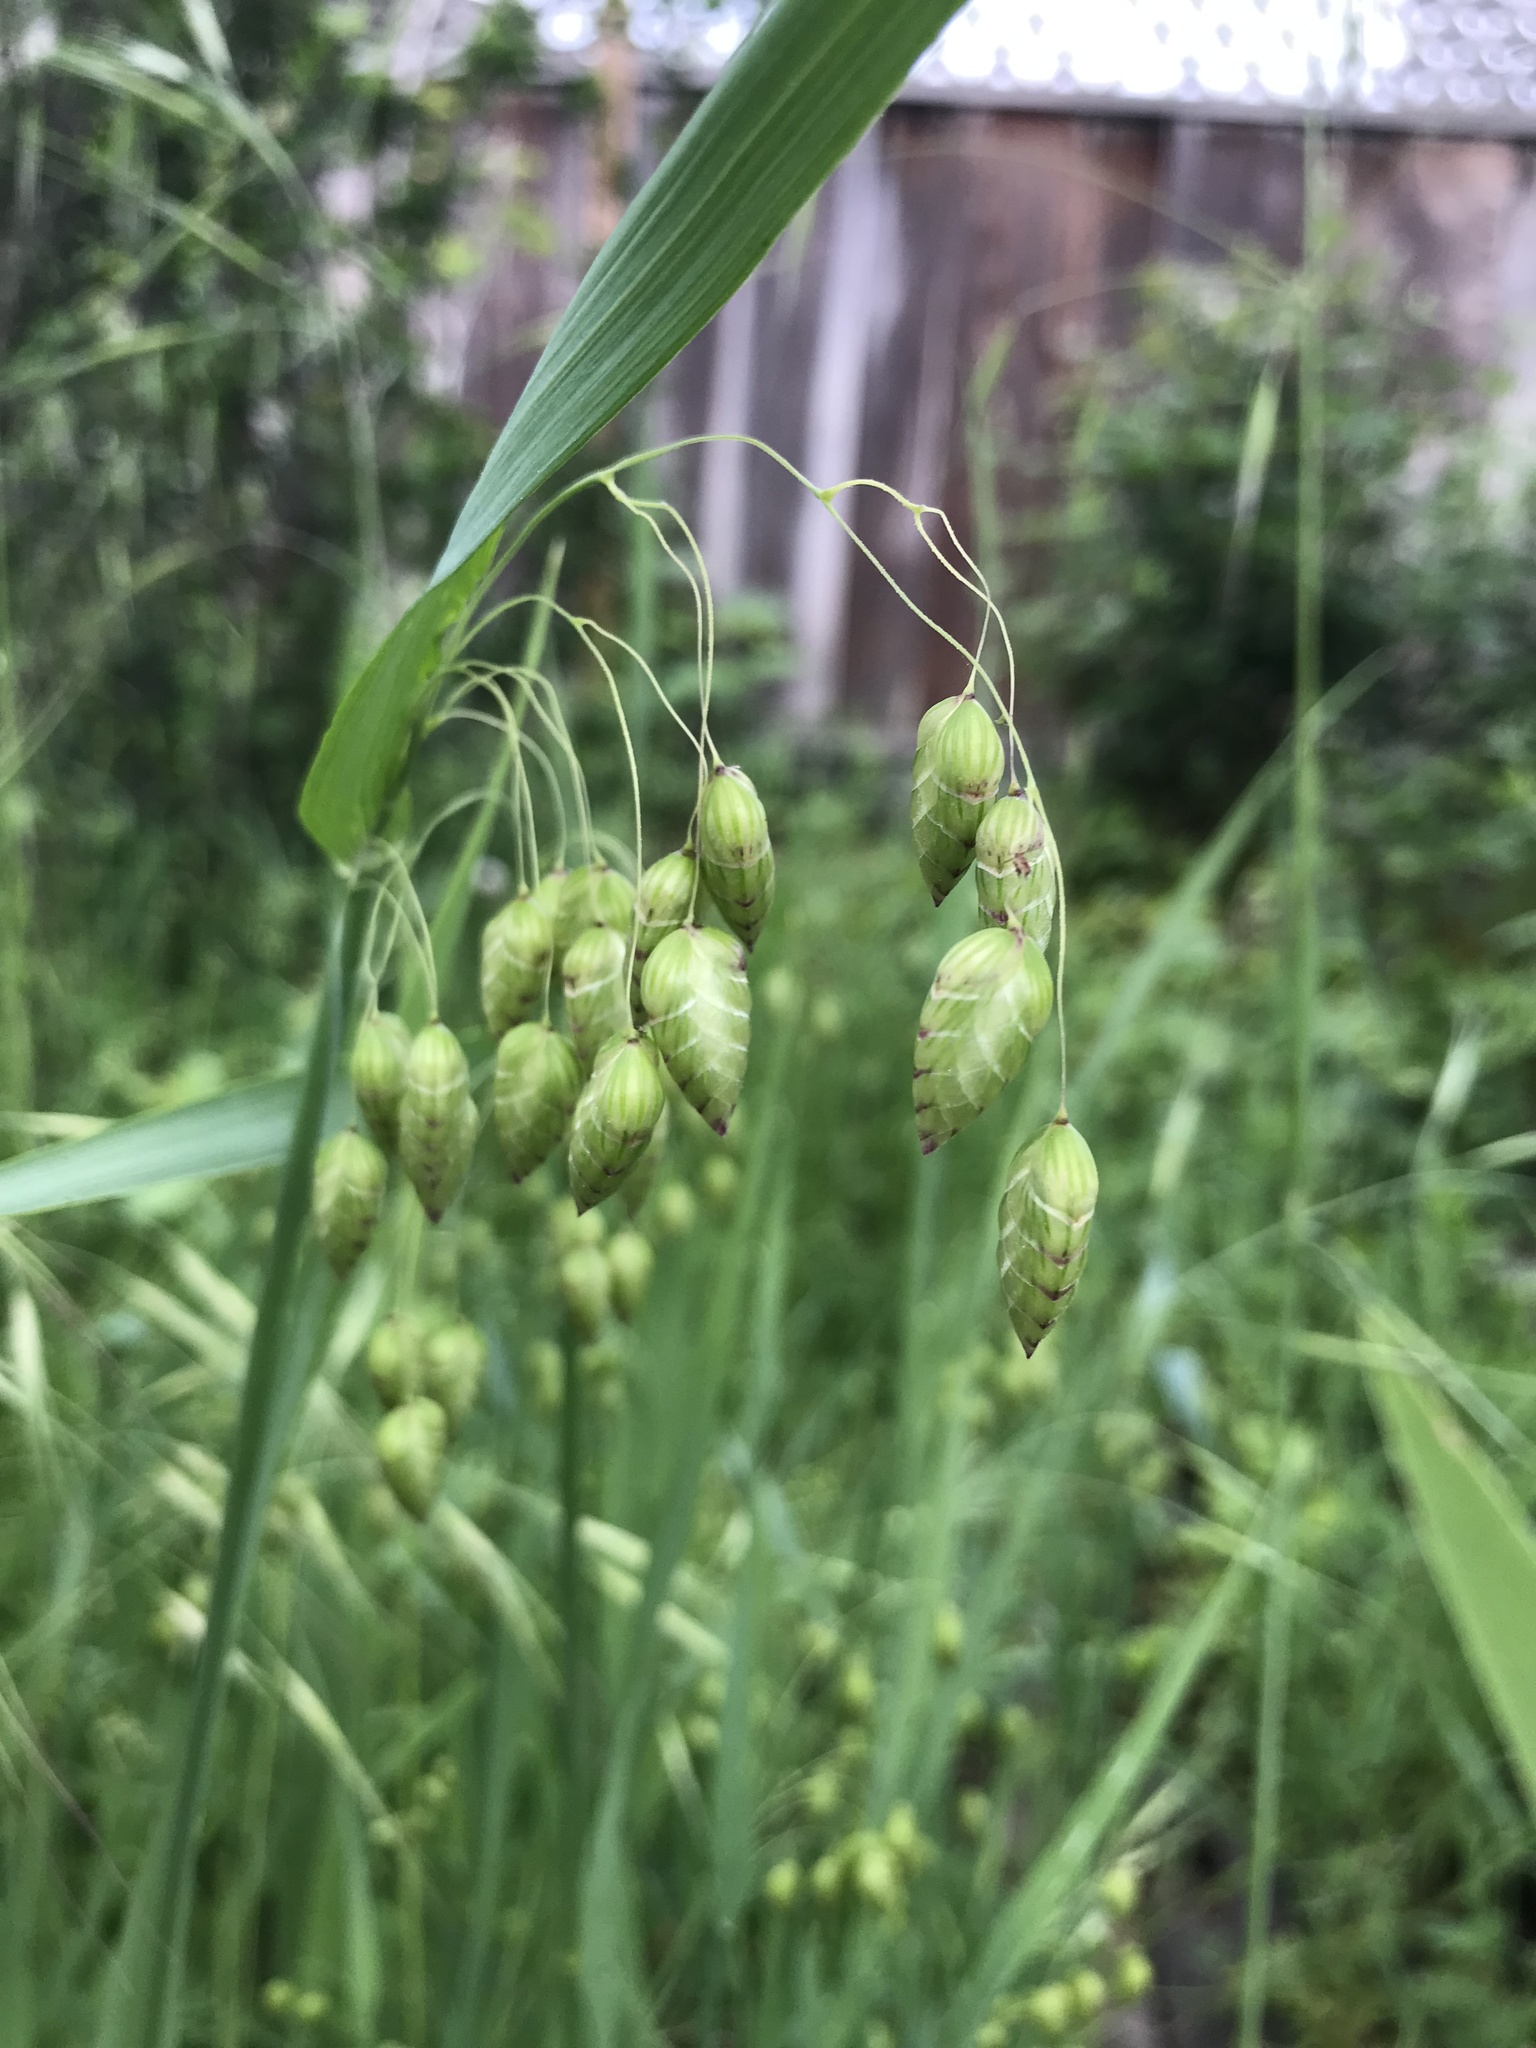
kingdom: Plantae
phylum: Tracheophyta
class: Liliopsida
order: Poales
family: Poaceae
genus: Briza
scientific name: Briza maxima
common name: Big quakinggrass
